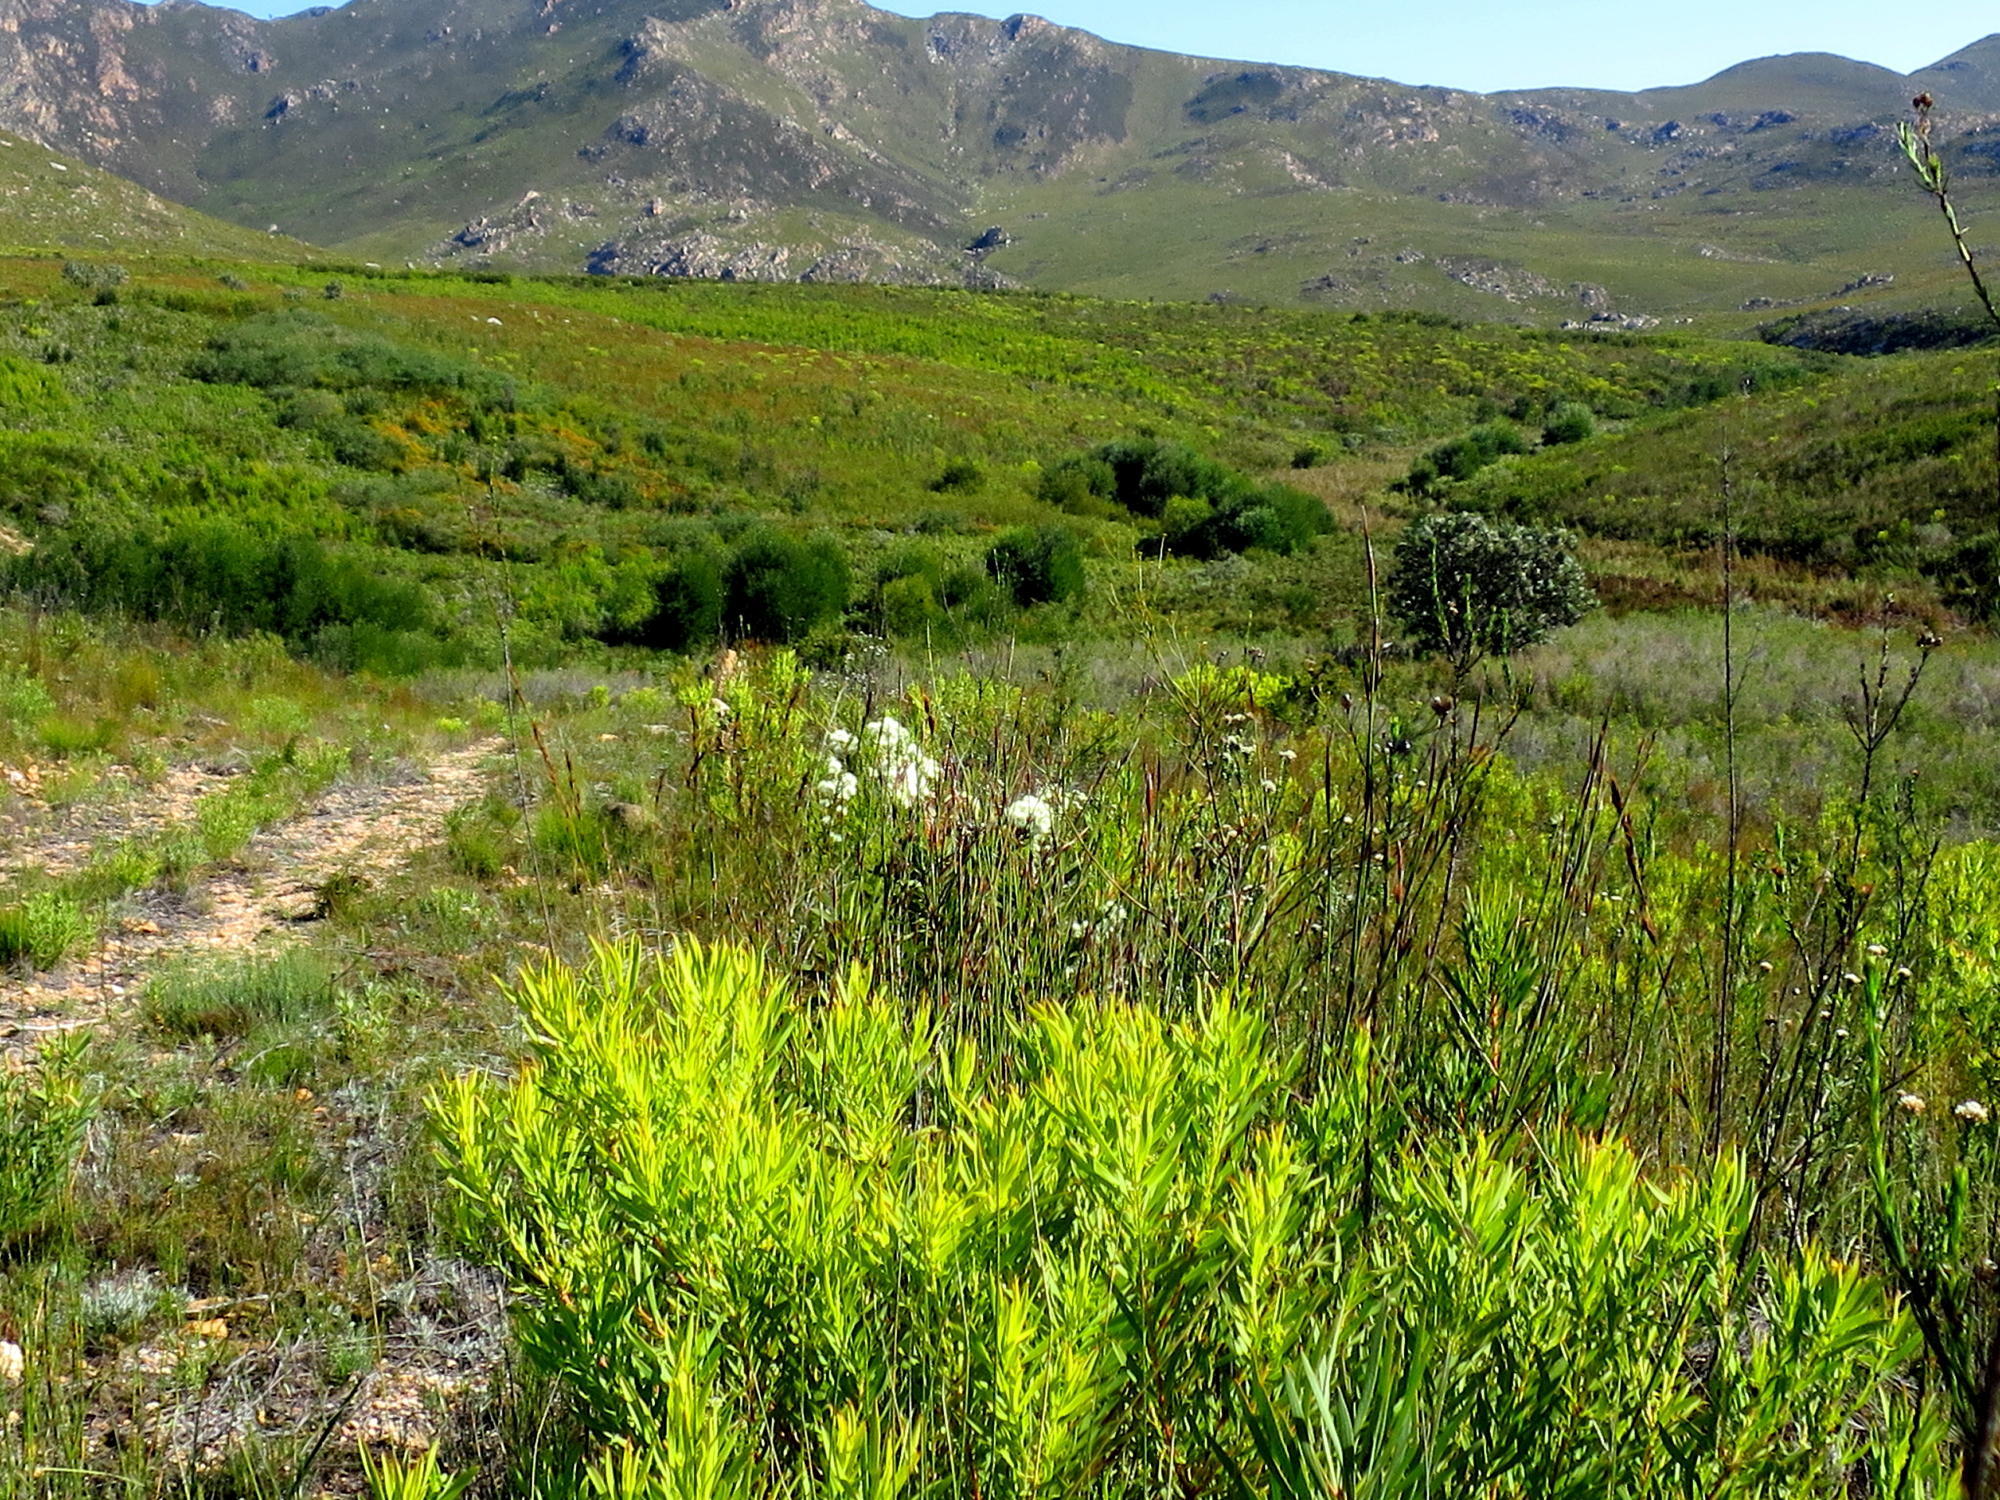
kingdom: Plantae
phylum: Tracheophyta
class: Magnoliopsida
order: Proteales
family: Proteaceae
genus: Leucadendron
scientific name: Leucadendron salignum
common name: Common sunshine conebush
